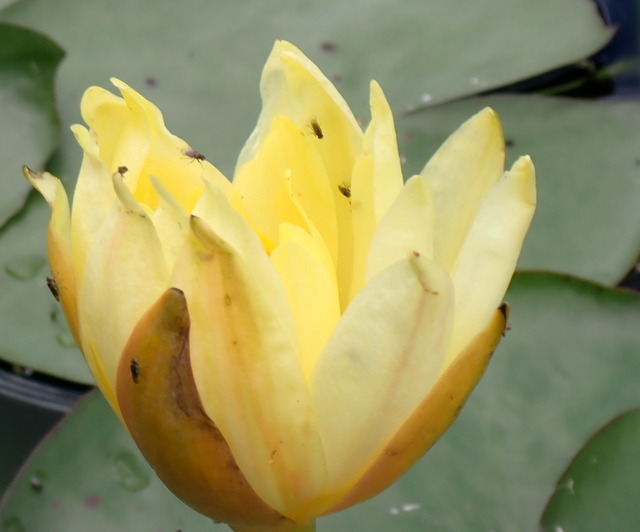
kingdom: Plantae
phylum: Tracheophyta
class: Magnoliopsida
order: Nymphaeales
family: Nymphaeaceae
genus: Nymphaea
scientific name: Nymphaea mexicana
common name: Banana water-lily
